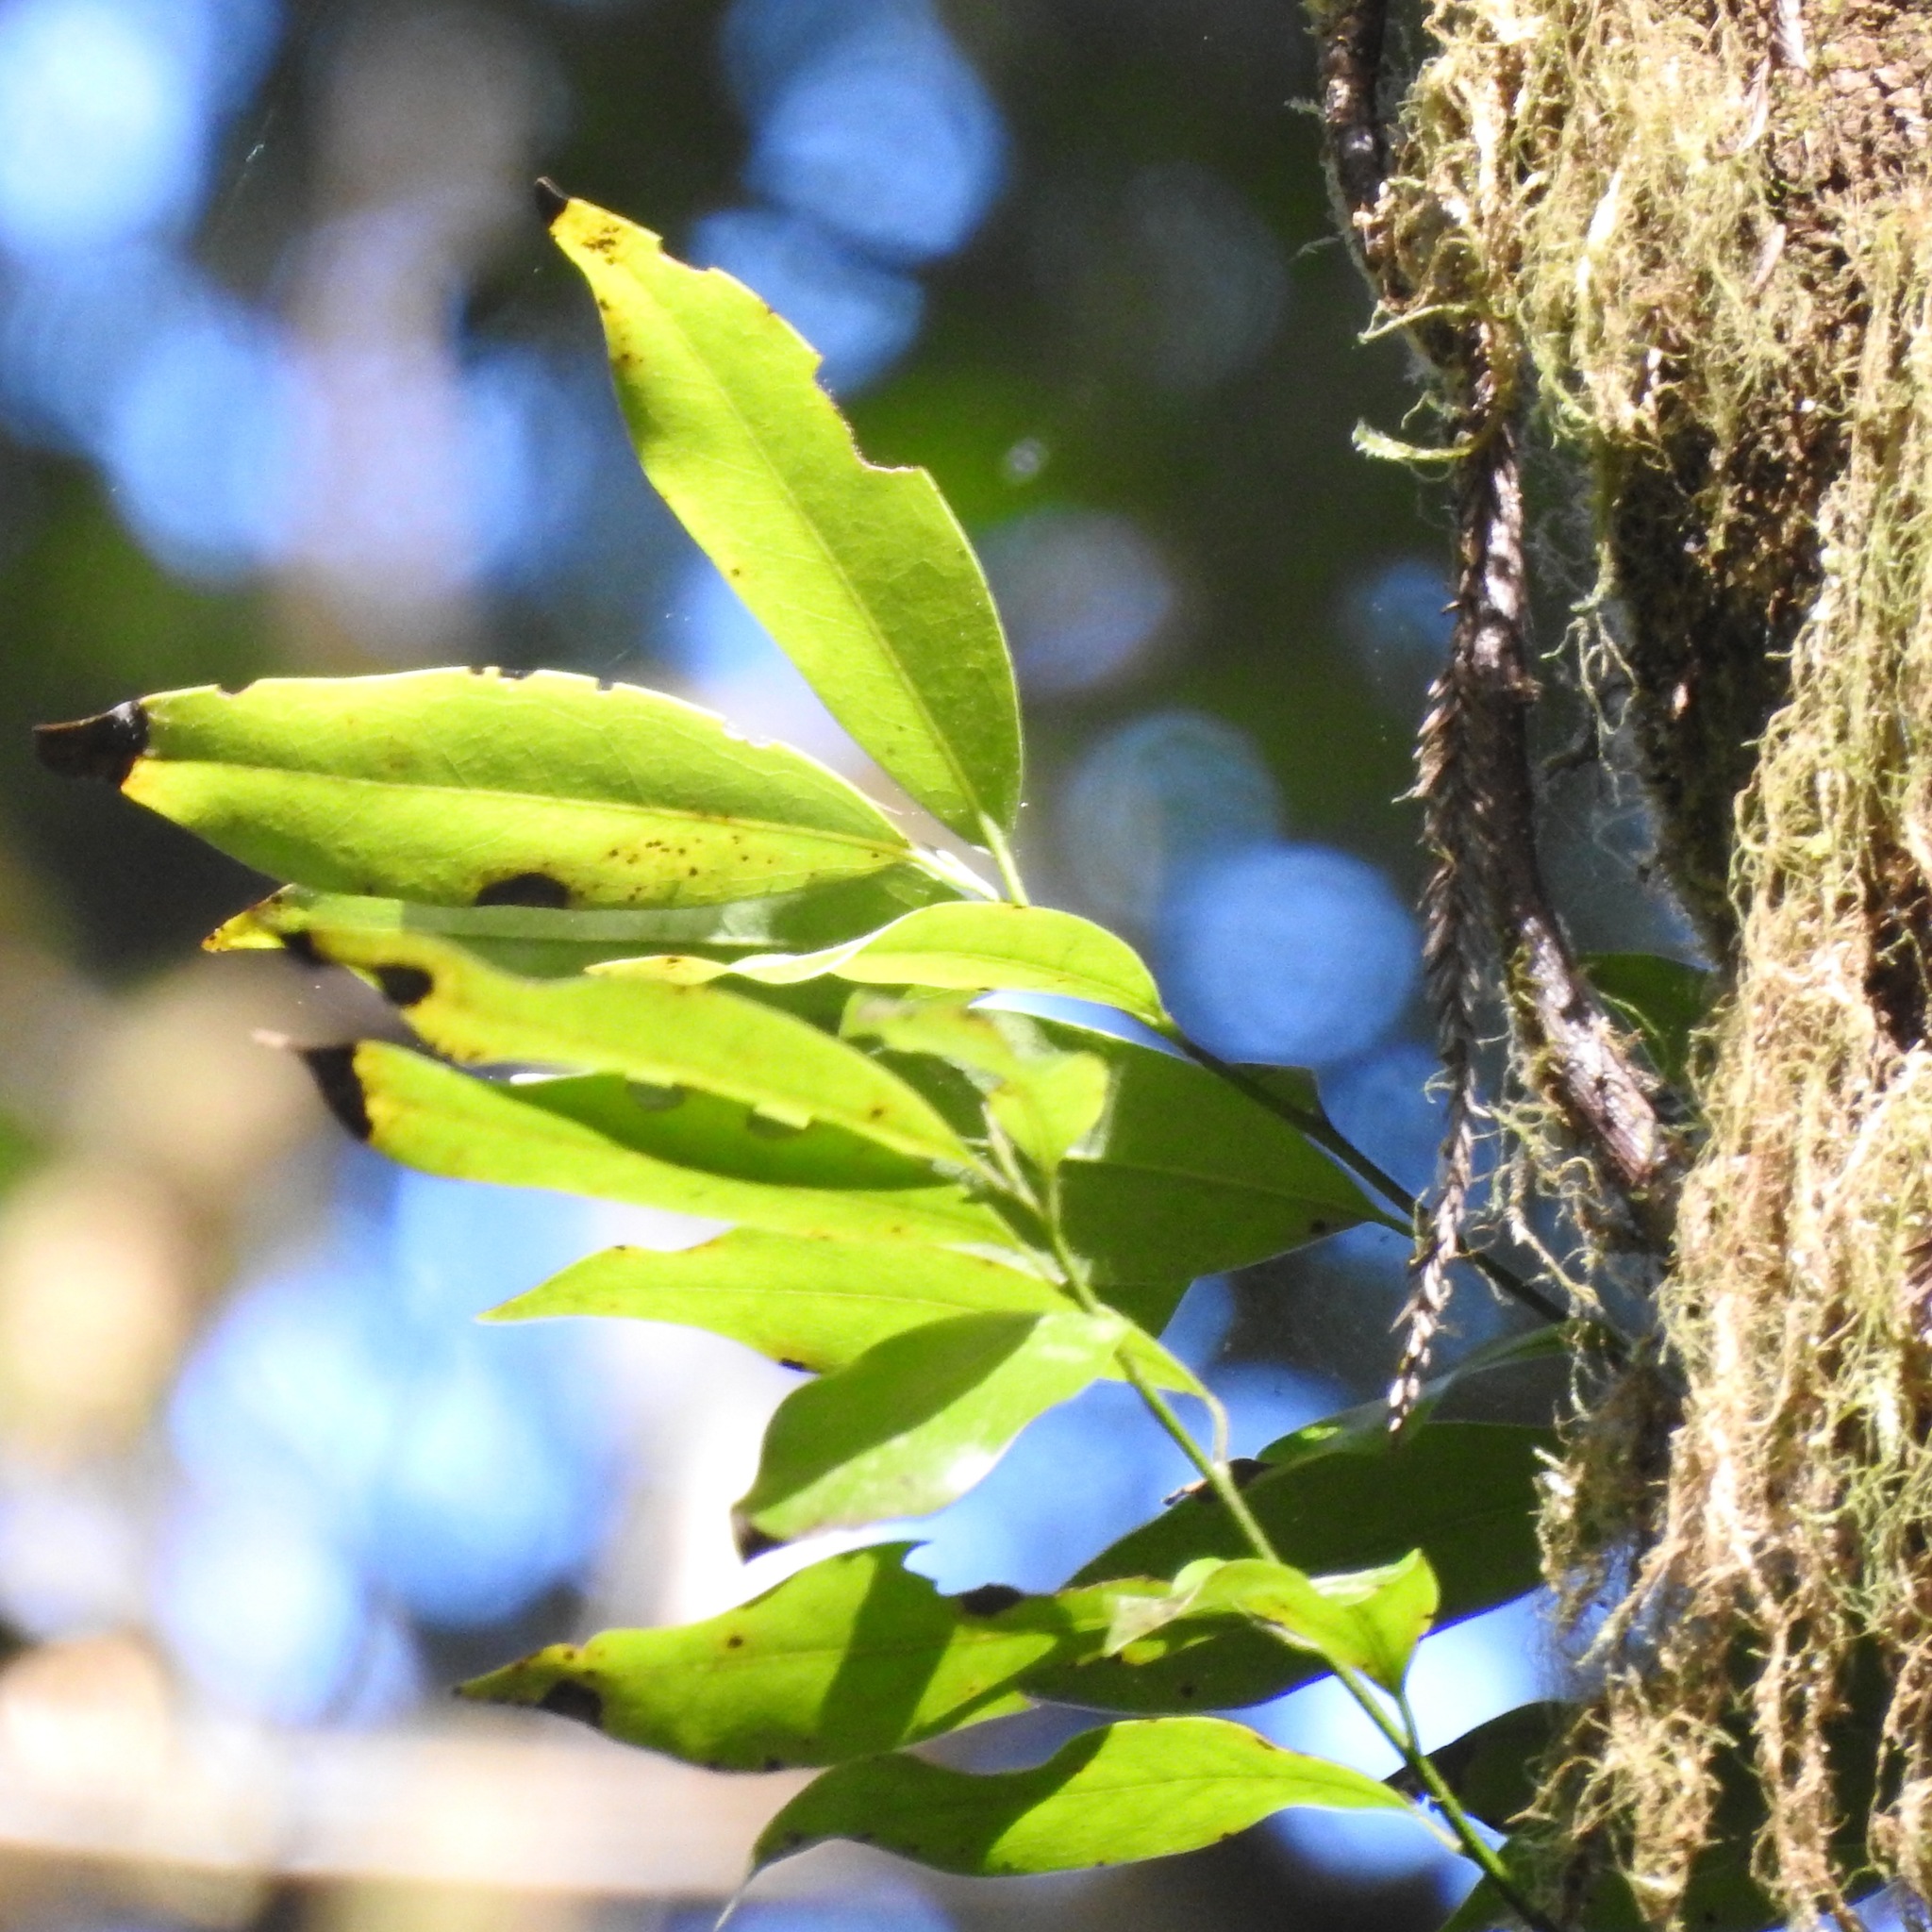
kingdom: Plantae
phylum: Tracheophyta
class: Magnoliopsida
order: Laurales
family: Lauraceae
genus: Umbellularia
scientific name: Umbellularia californica
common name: California bay
